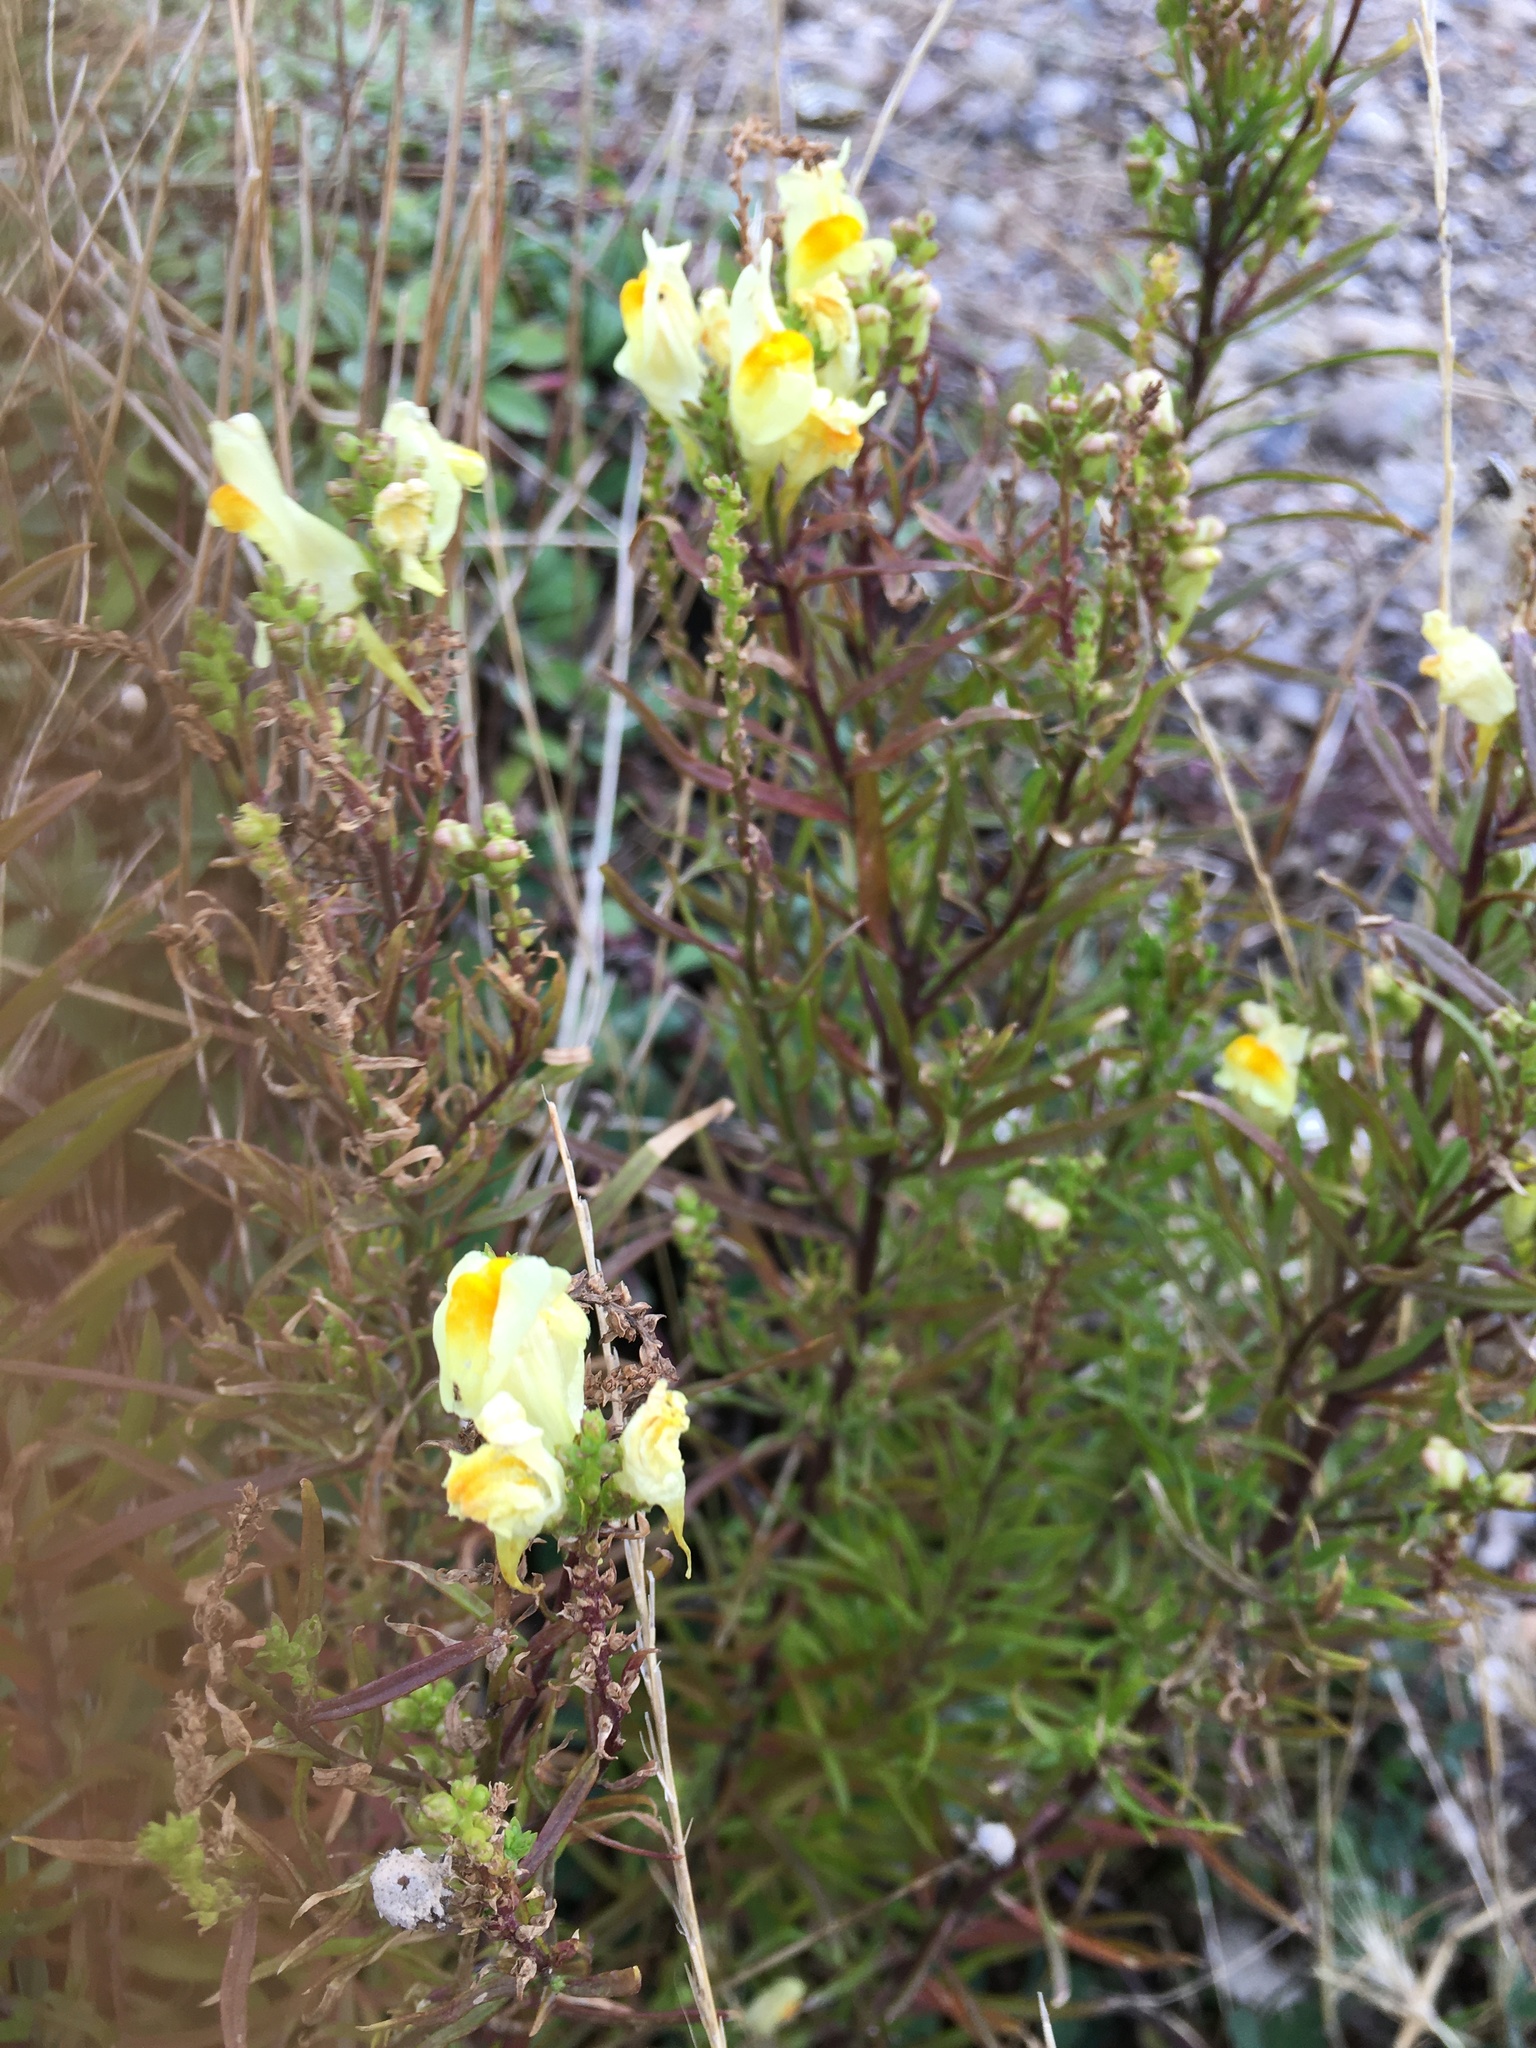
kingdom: Plantae
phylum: Tracheophyta
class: Magnoliopsida
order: Lamiales
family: Plantaginaceae
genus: Linaria
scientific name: Linaria vulgaris
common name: Butter and eggs
